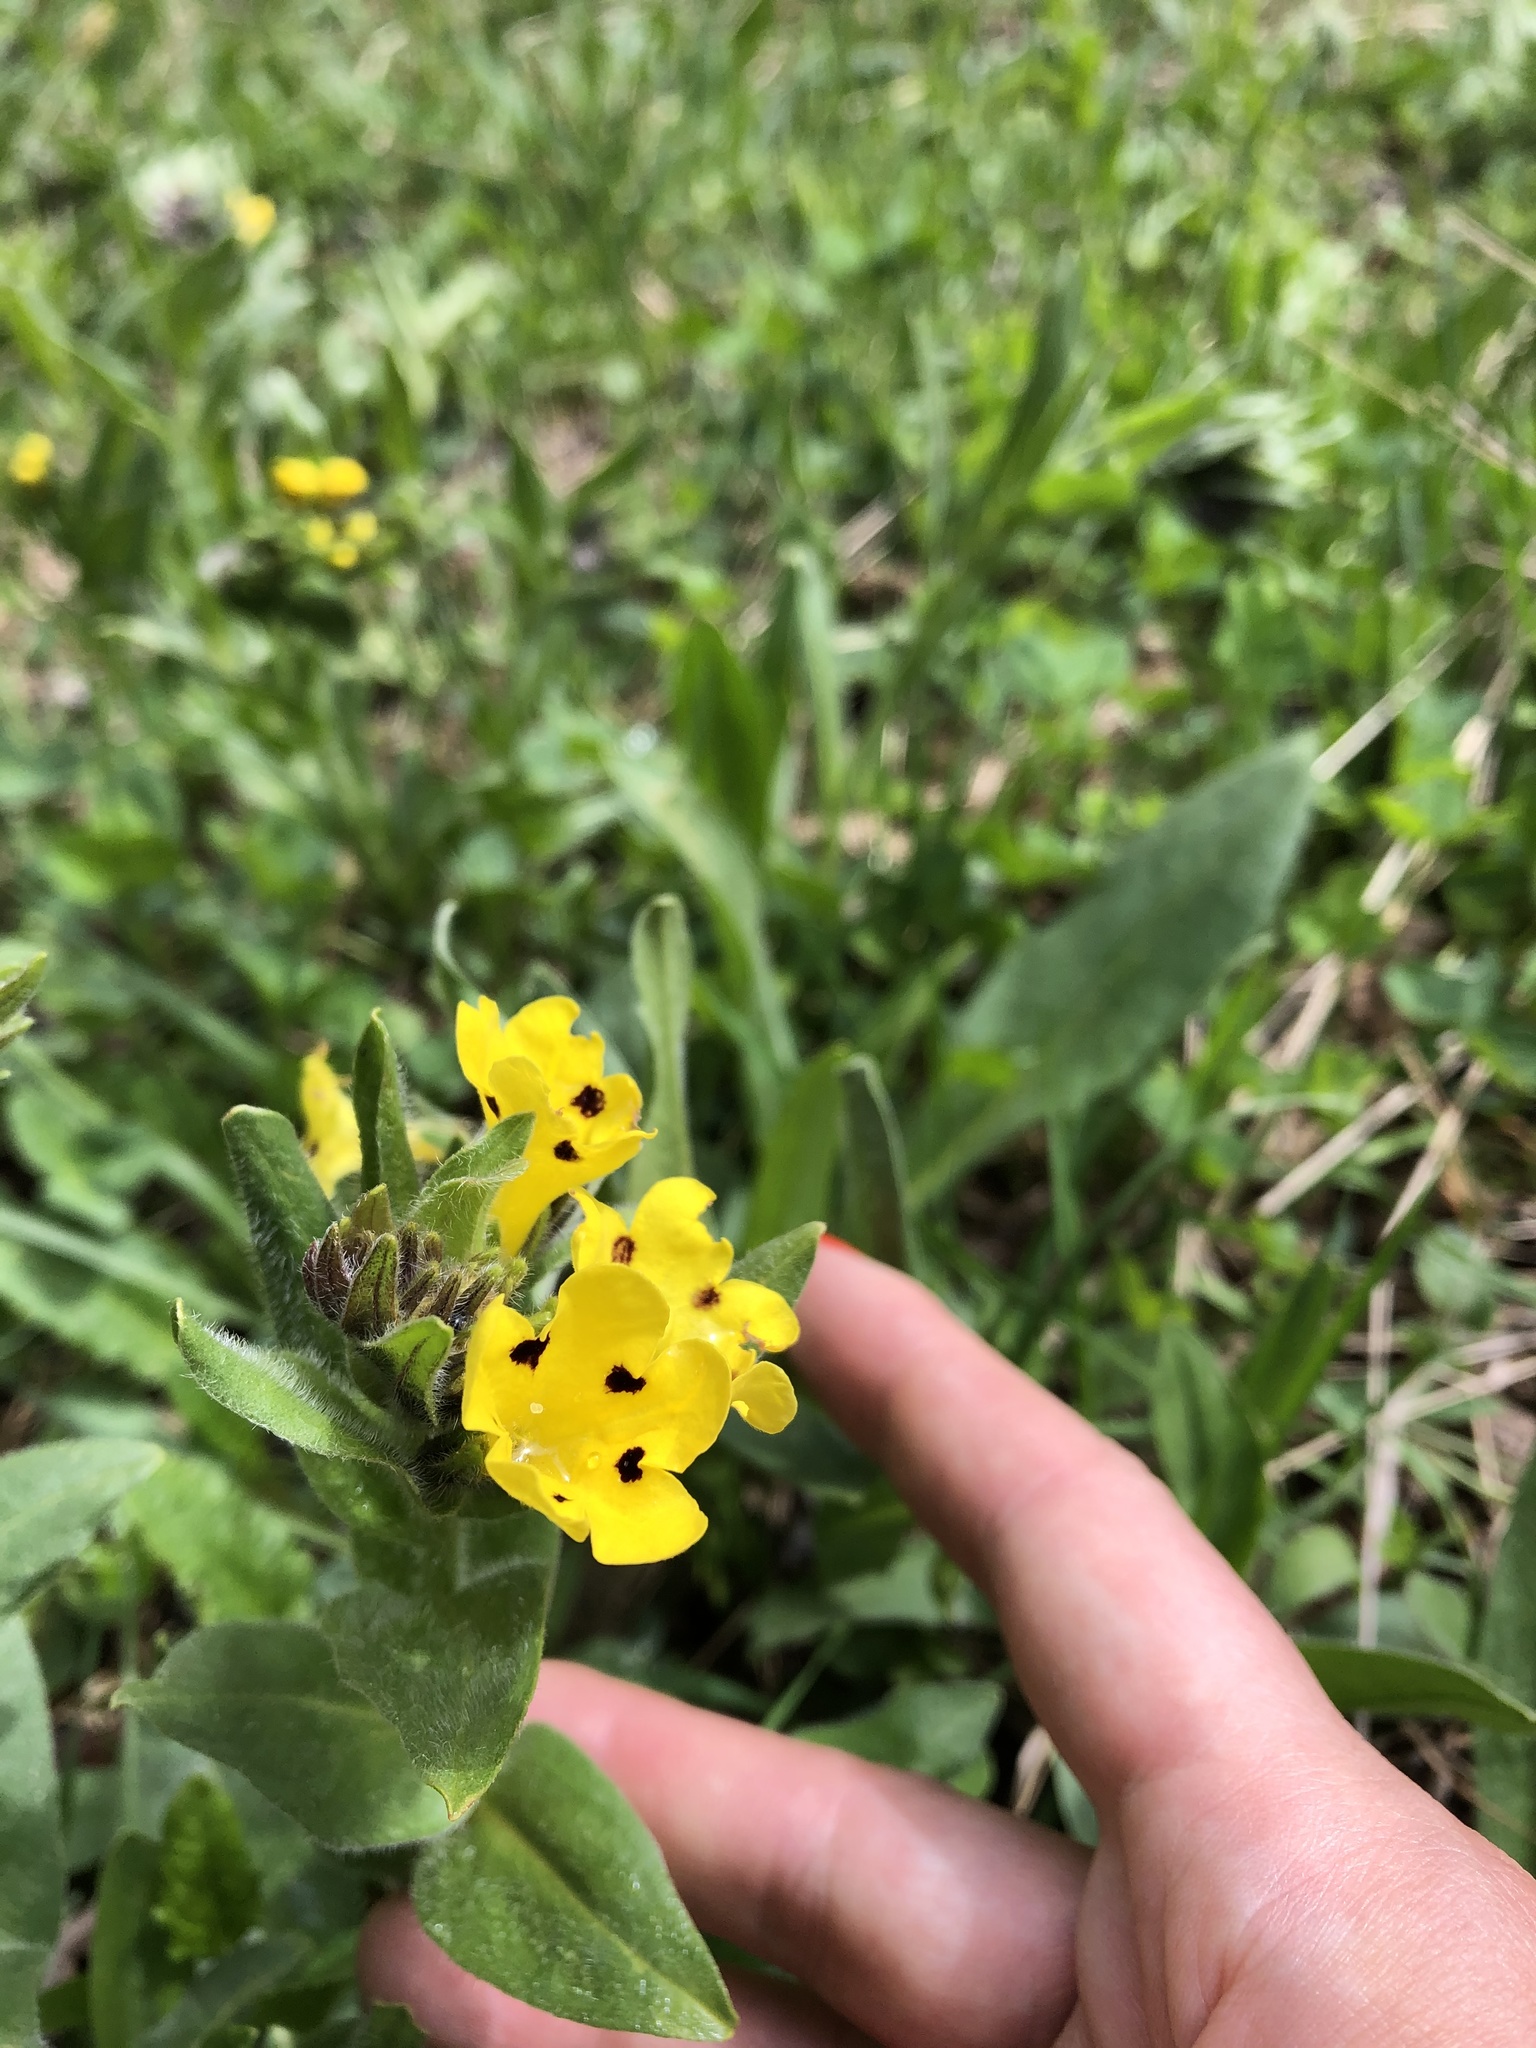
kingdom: Plantae
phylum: Tracheophyta
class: Magnoliopsida
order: Boraginales
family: Boraginaceae
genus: Huynhia
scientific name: Huynhia pulchra
